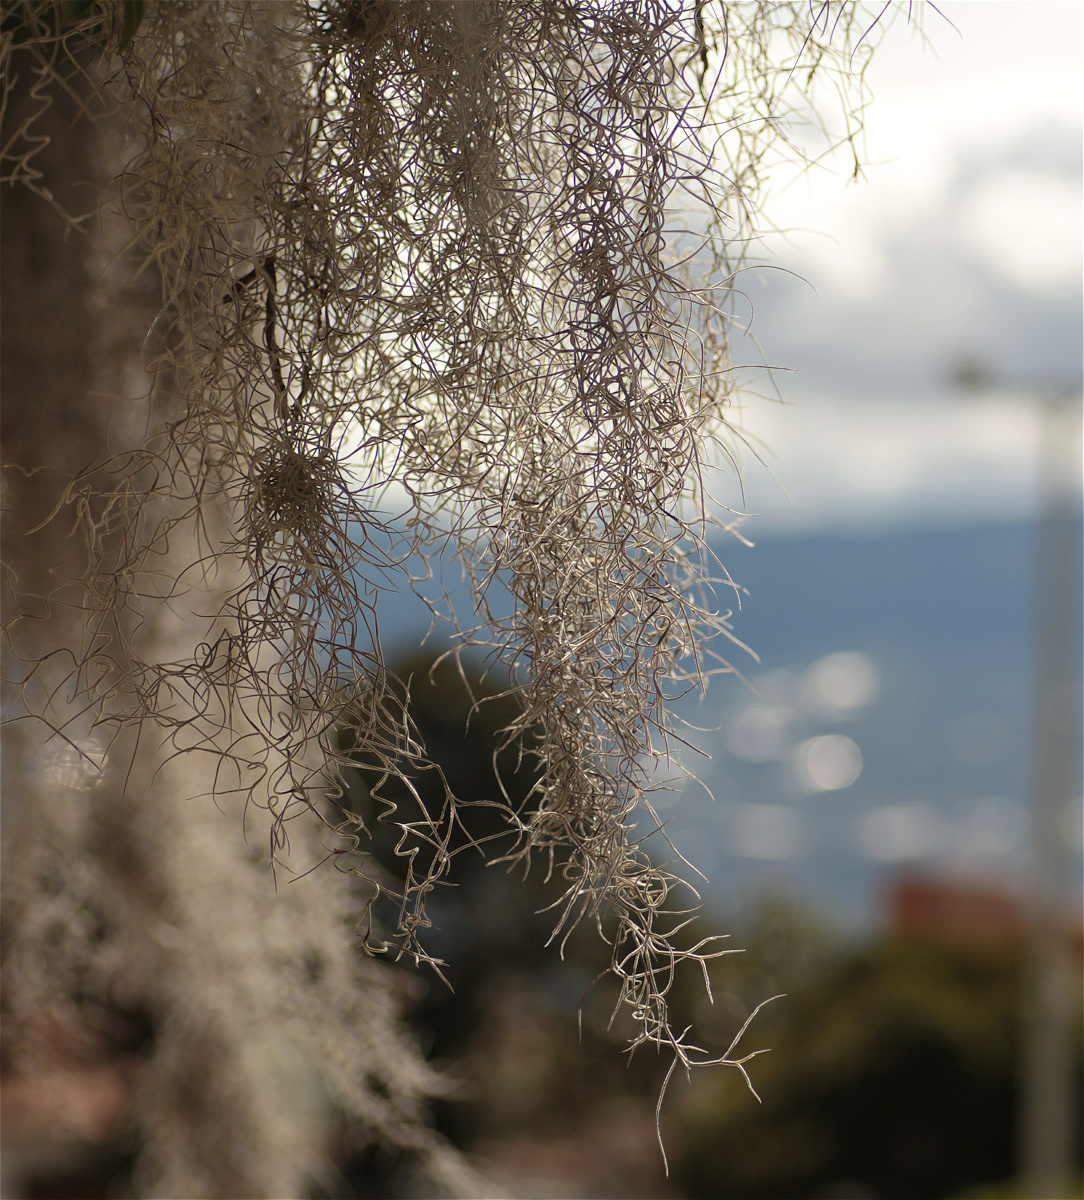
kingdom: Plantae
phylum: Tracheophyta
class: Liliopsida
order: Poales
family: Bromeliaceae
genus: Tillandsia
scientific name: Tillandsia usneoides
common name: Spanish moss
